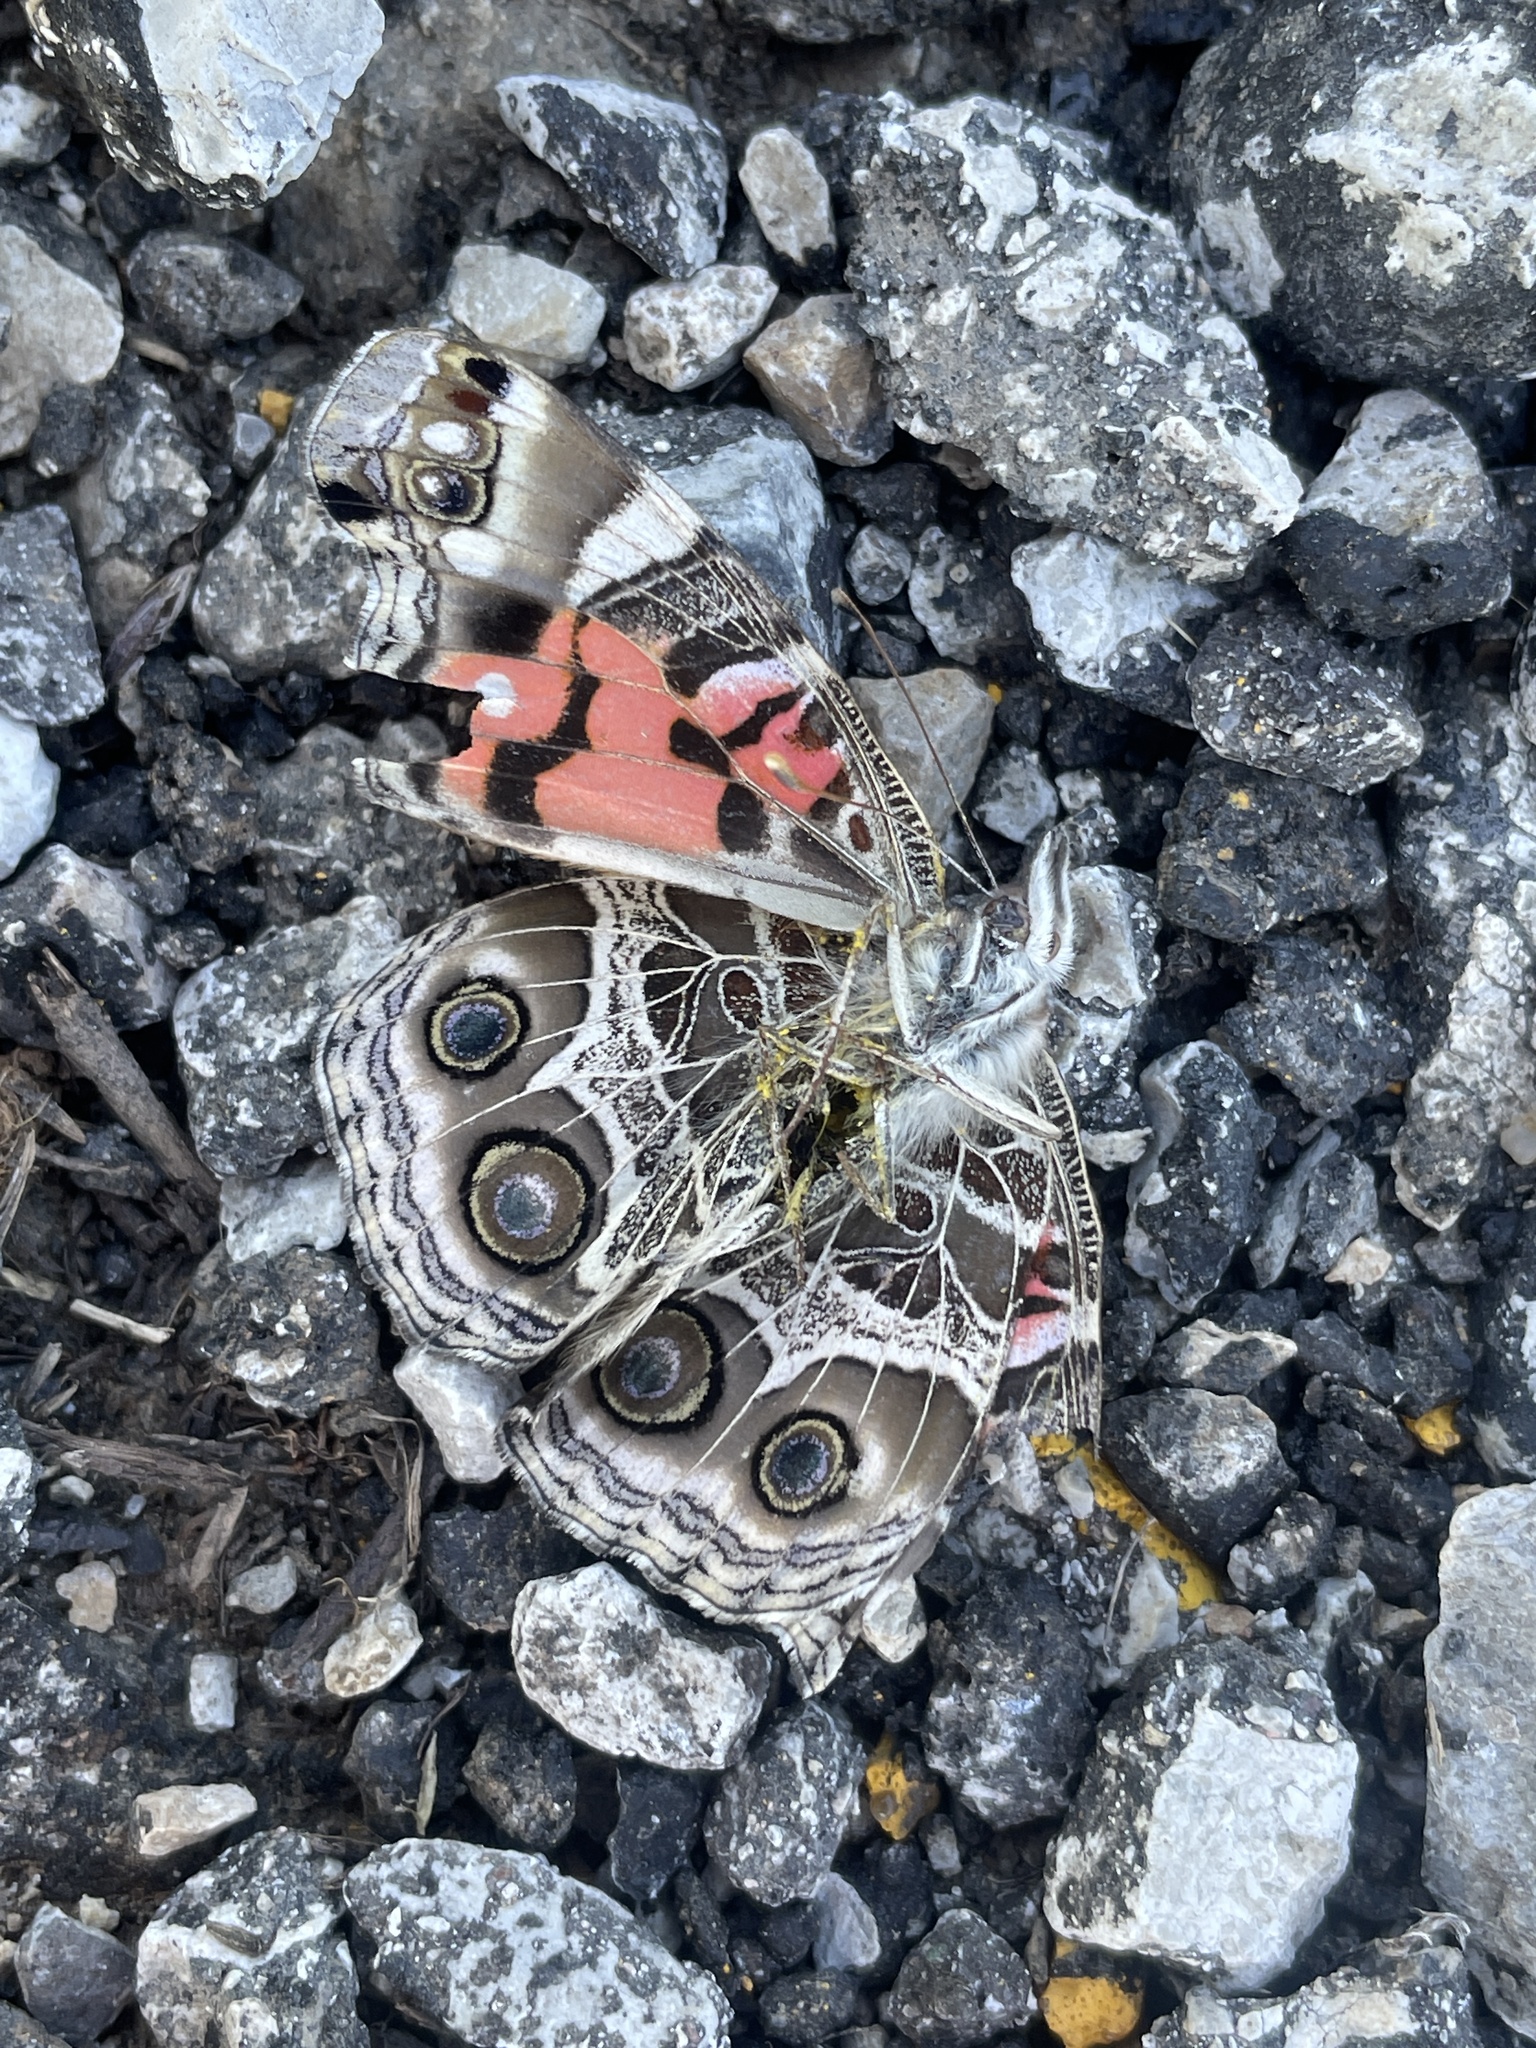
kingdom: Animalia
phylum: Arthropoda
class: Insecta
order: Lepidoptera
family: Nymphalidae
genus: Vanessa
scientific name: Vanessa virginiensis
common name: American lady
